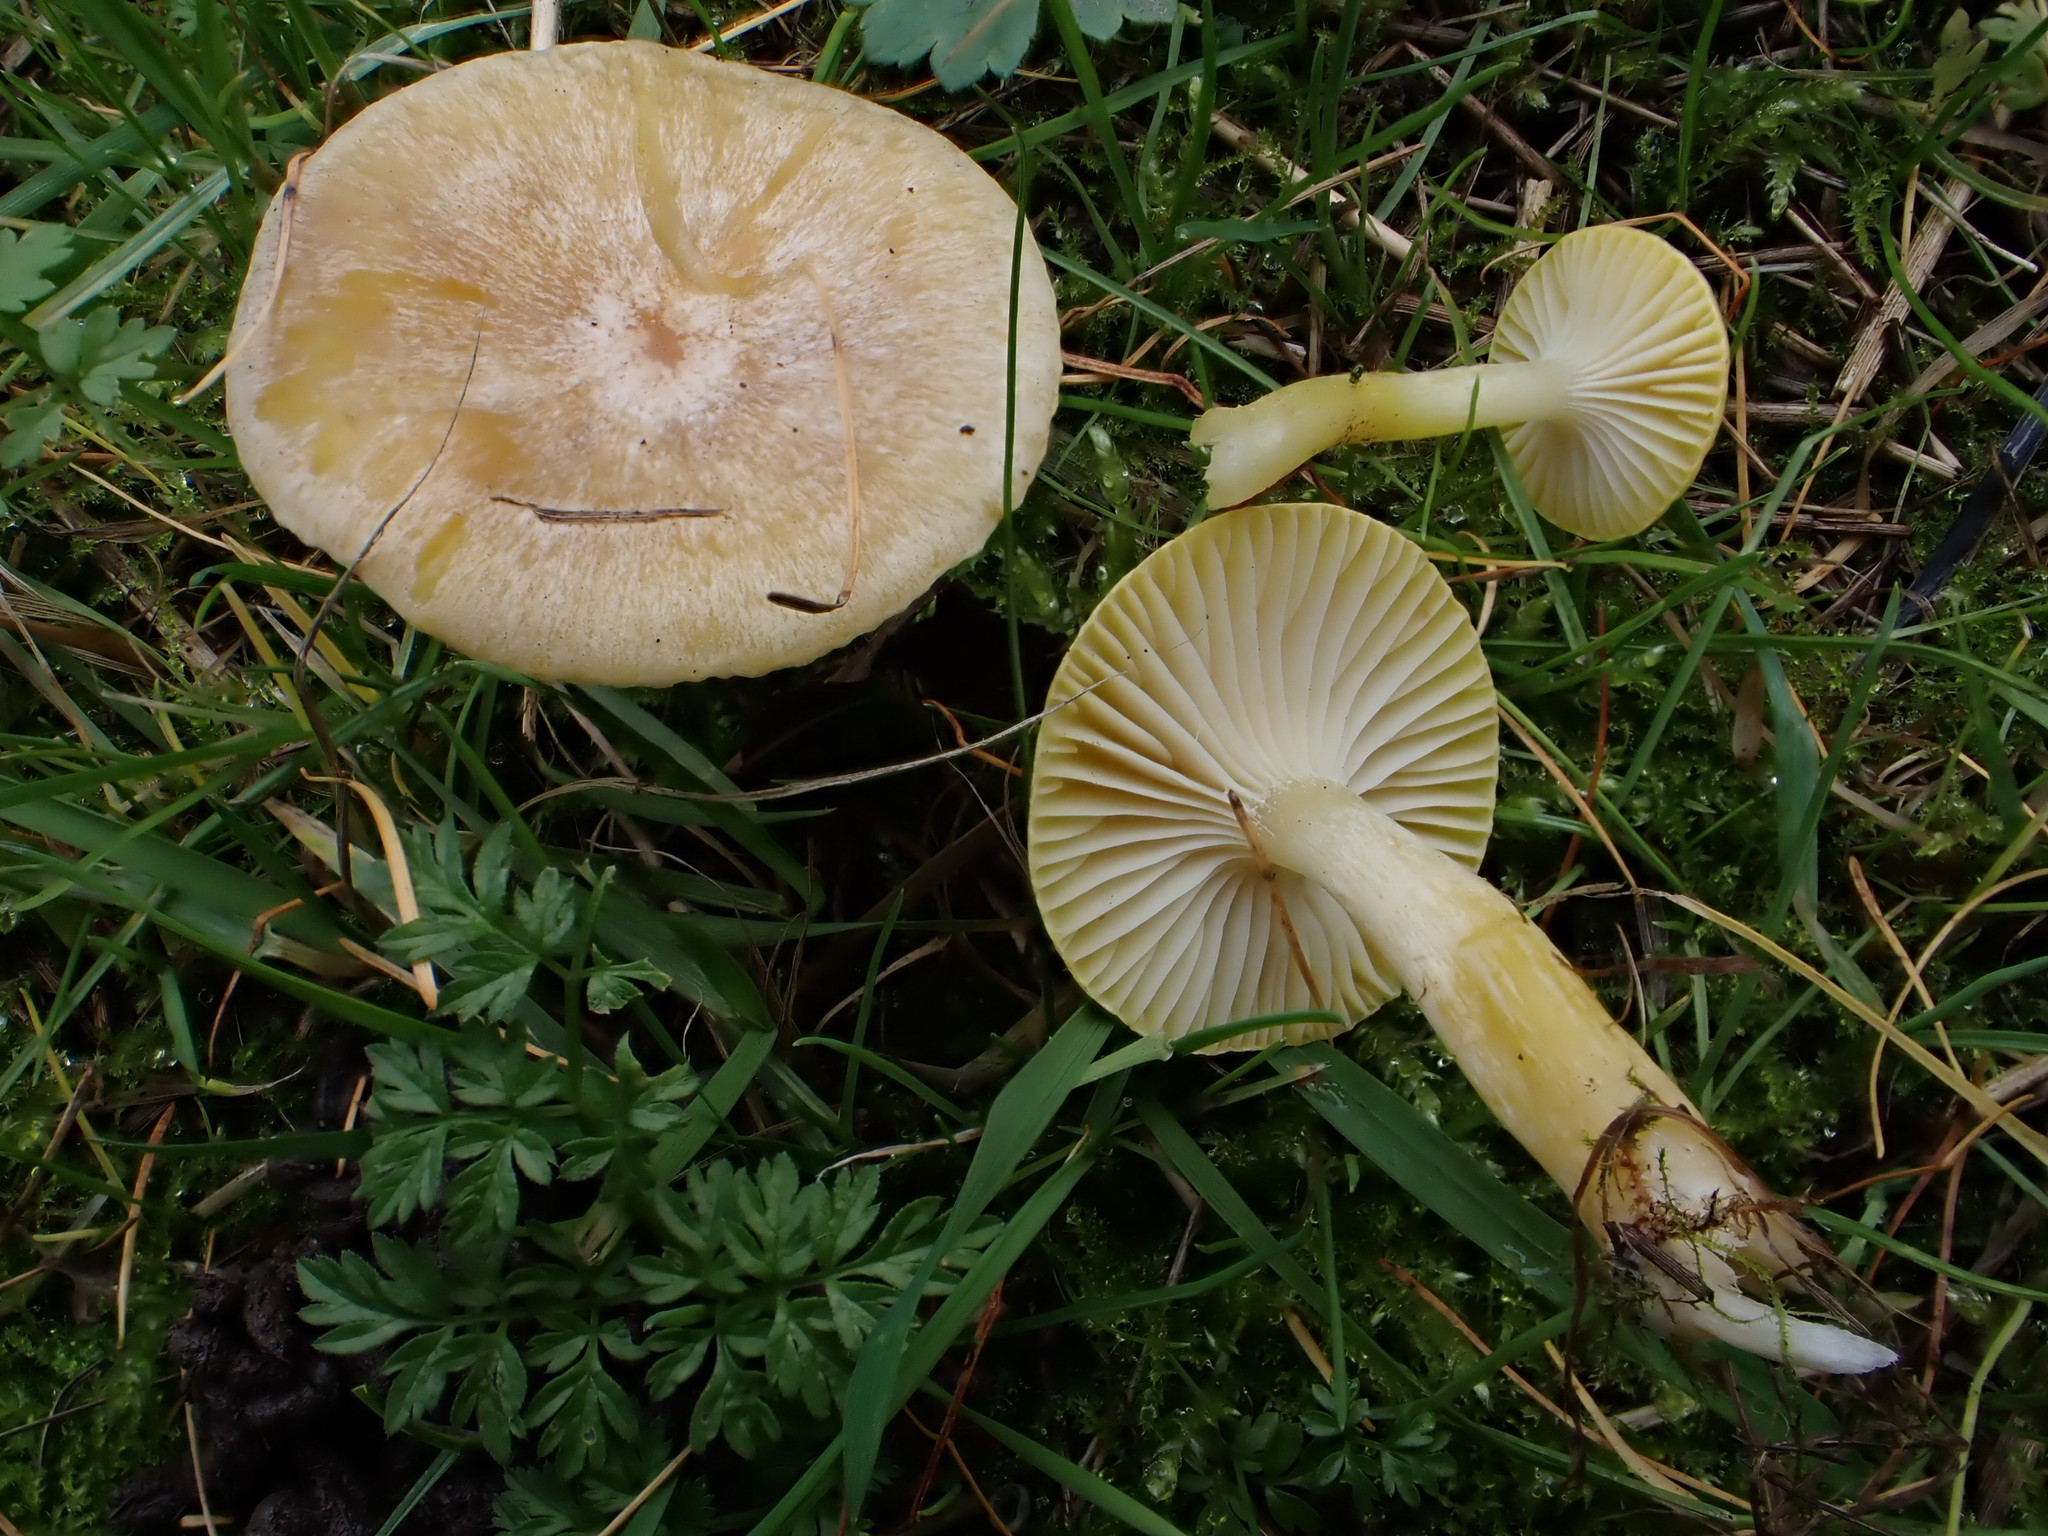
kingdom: Fungi
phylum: Basidiomycota
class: Agaricomycetes
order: Agaricales
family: Hygrophoraceae
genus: Hygrophorus
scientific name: Hygrophorus lucorum
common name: Larch woodwax
